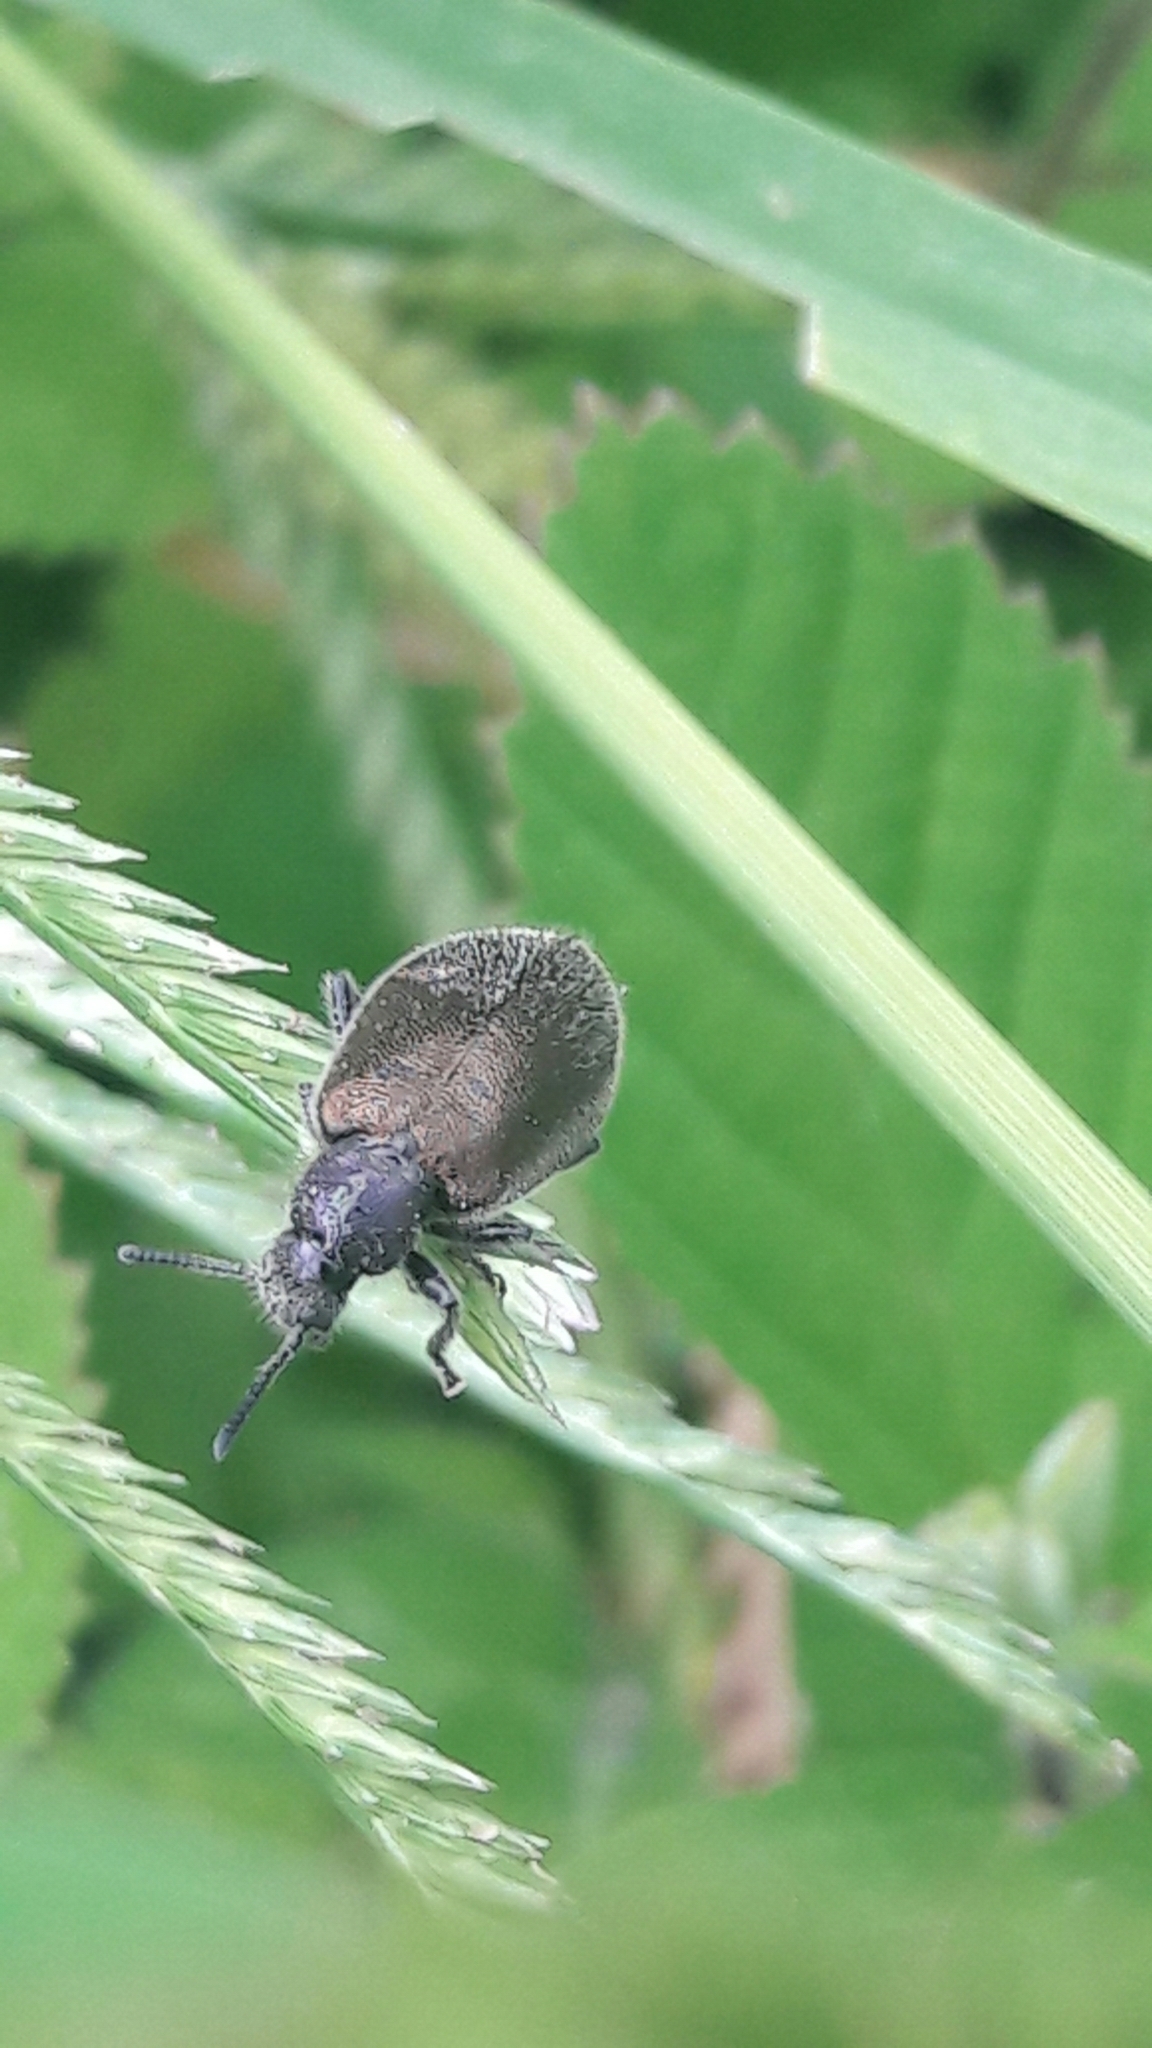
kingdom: Animalia
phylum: Arthropoda
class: Insecta
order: Coleoptera
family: Tenebrionidae
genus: Lagria
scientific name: Lagria villosa
